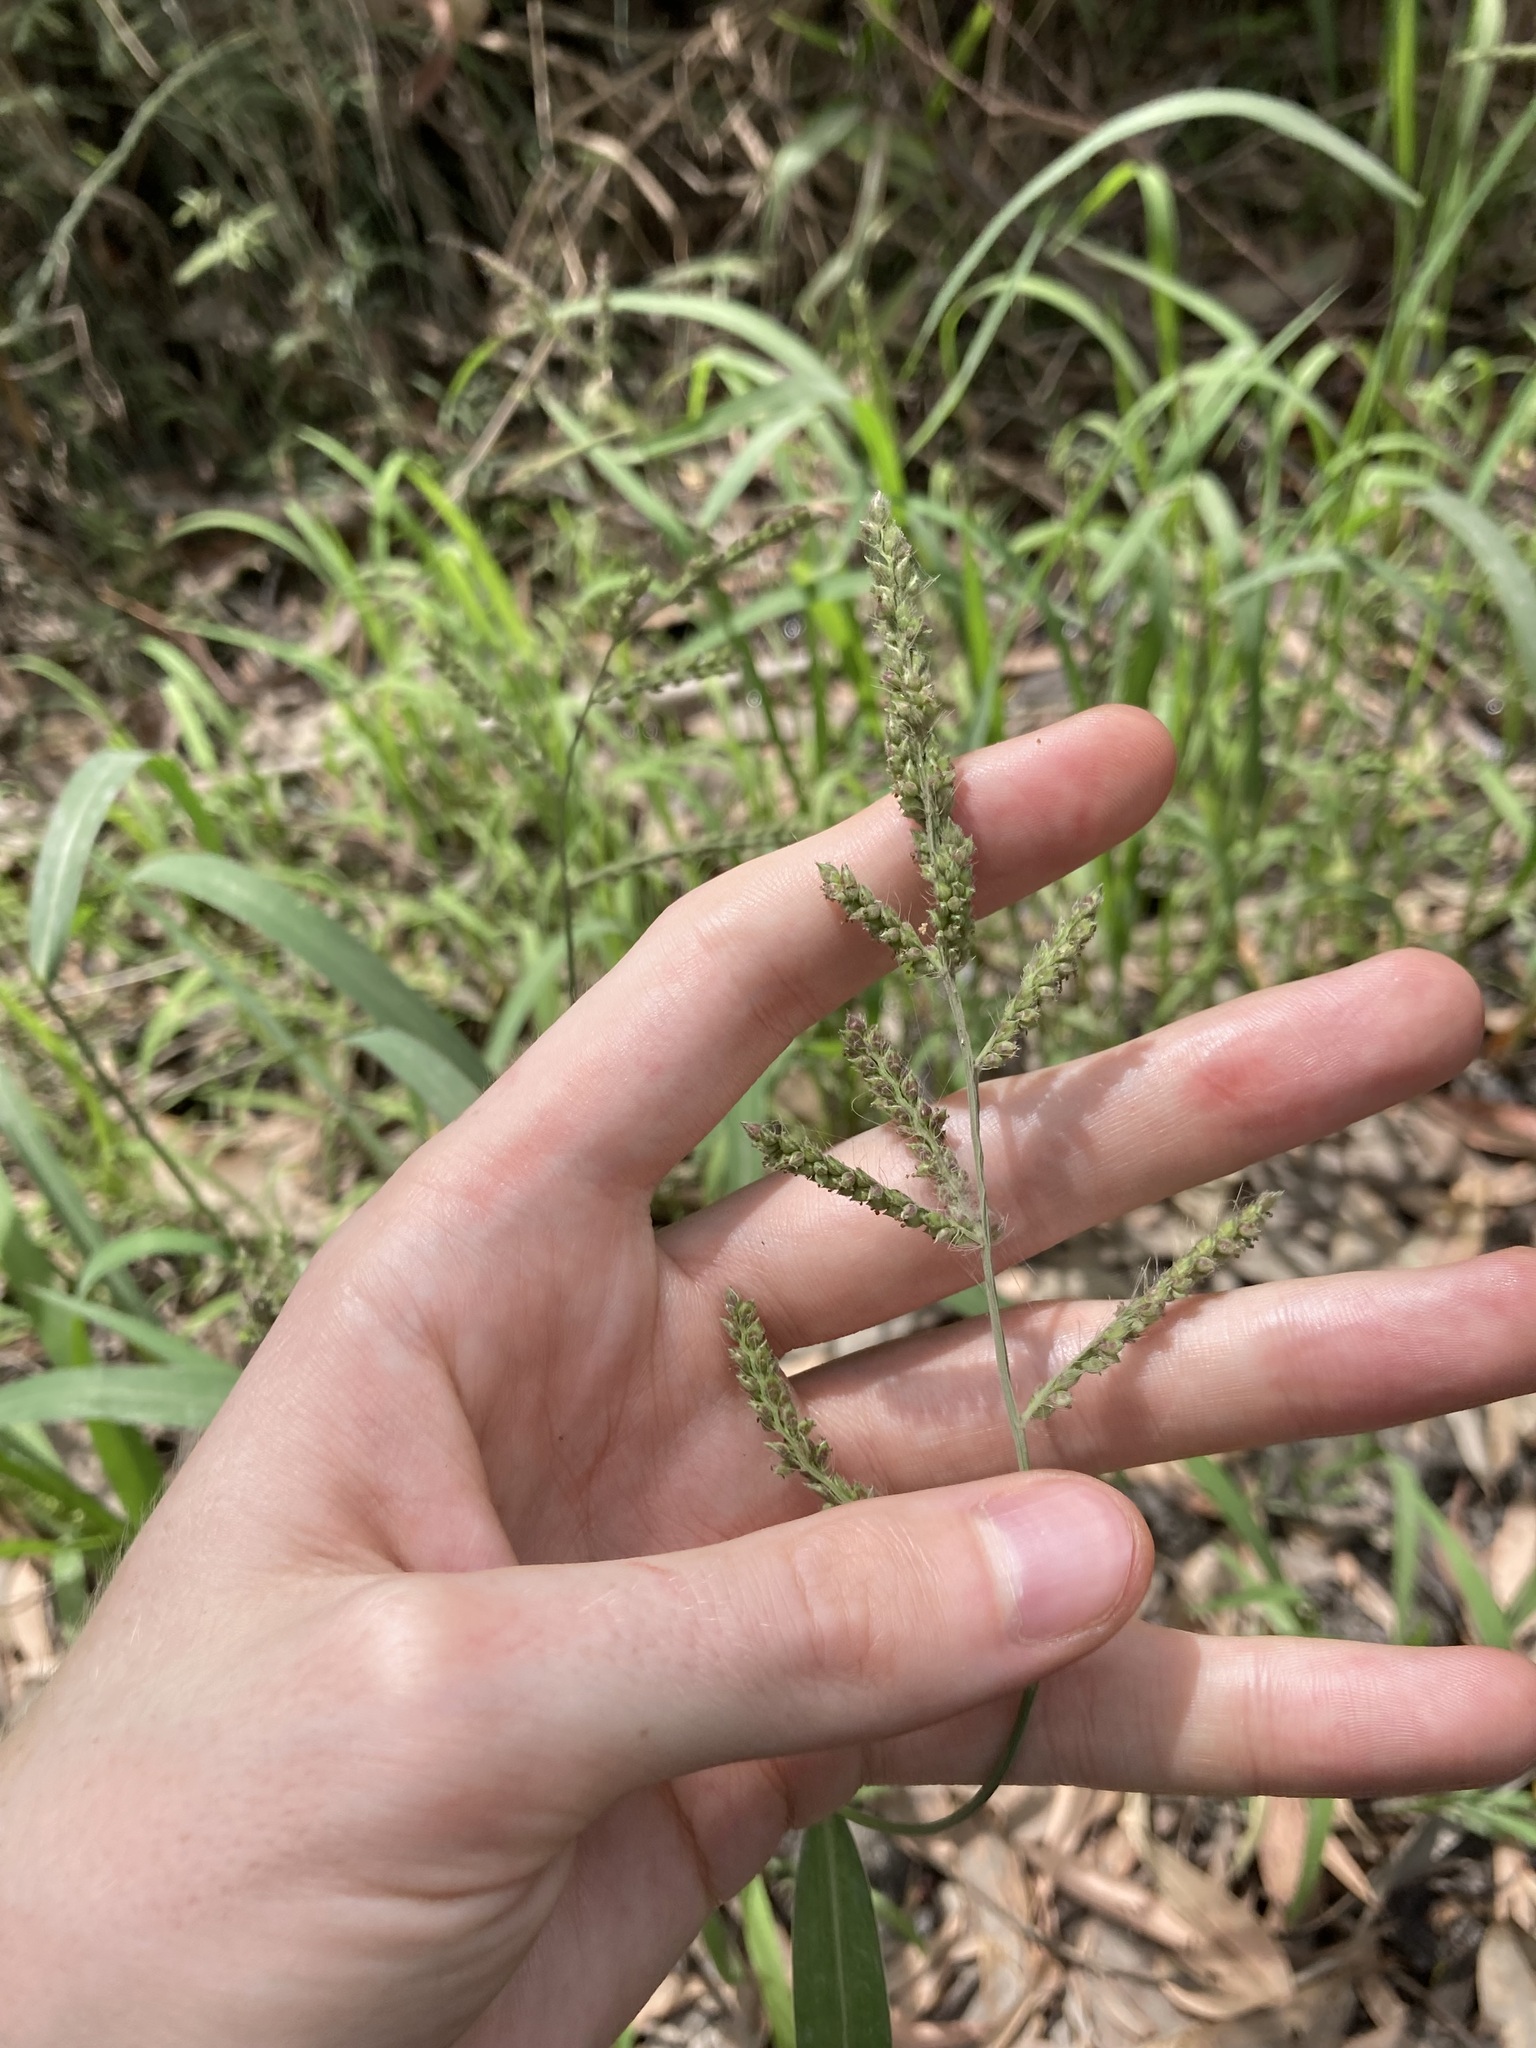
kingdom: Plantae
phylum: Tracheophyta
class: Liliopsida
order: Poales
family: Poaceae
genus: Echinochloa
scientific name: Echinochloa crus-galli
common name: Cockspur
